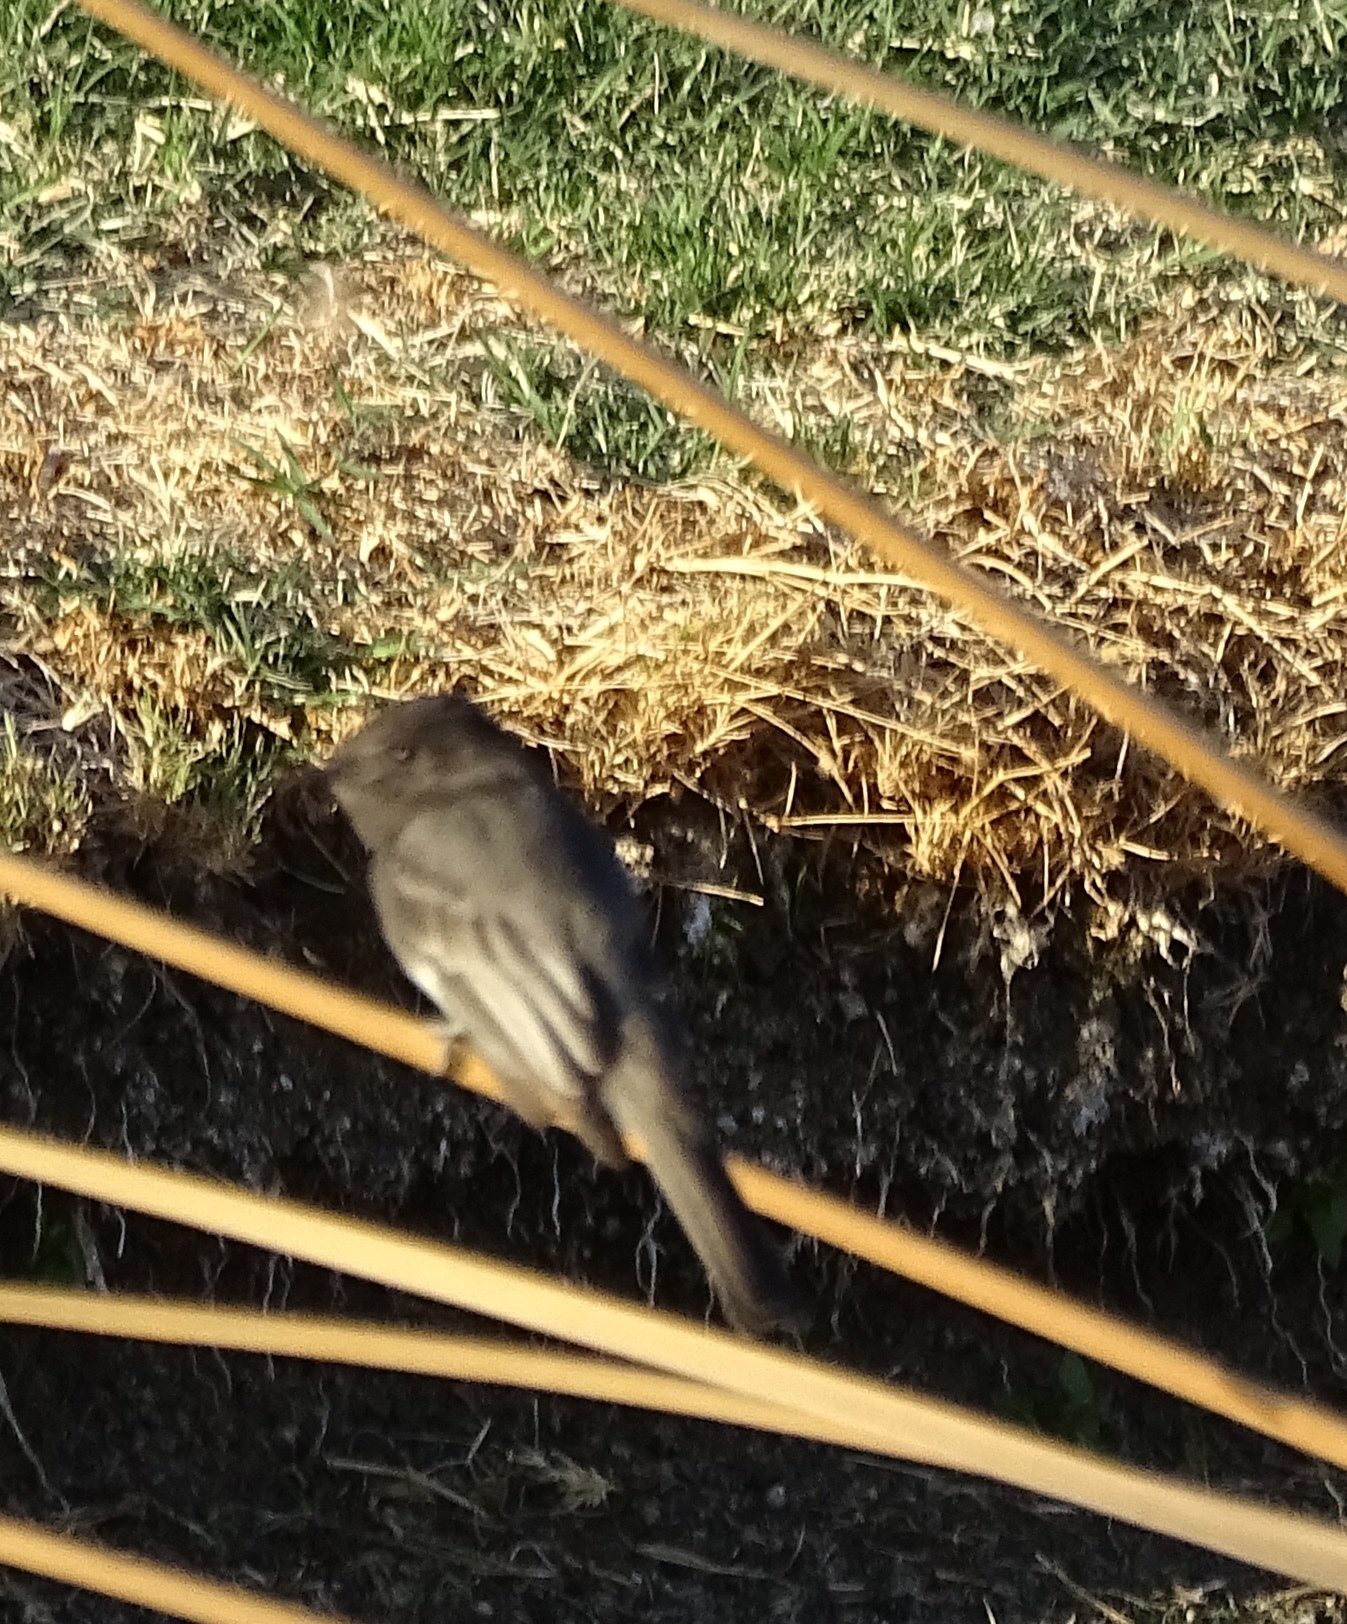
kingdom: Animalia
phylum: Chordata
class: Aves
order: Passeriformes
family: Tyrannidae
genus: Sayornis
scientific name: Sayornis nigricans
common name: Black phoebe
